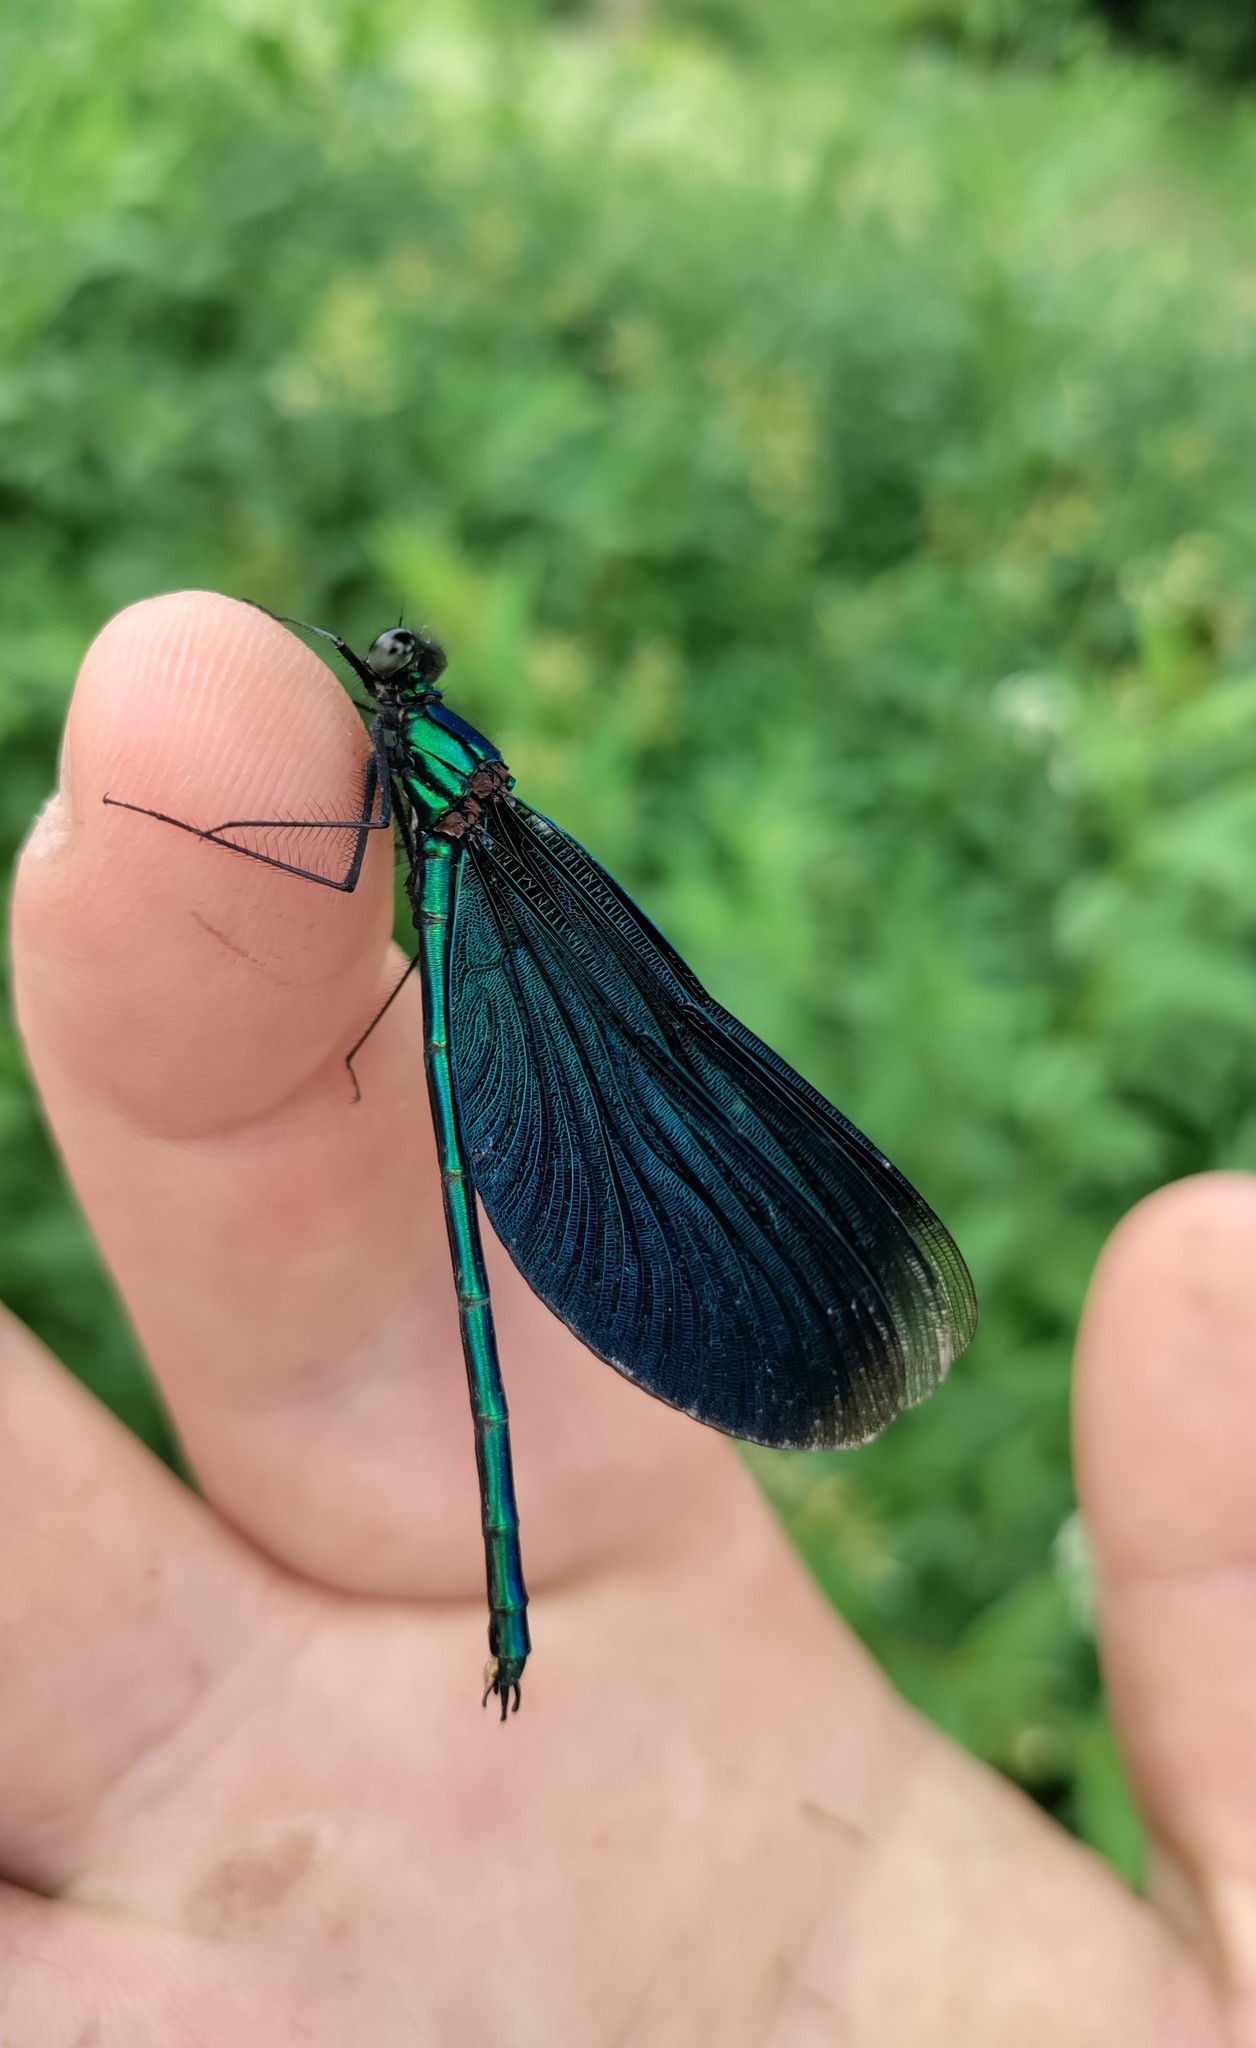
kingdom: Animalia
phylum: Arthropoda
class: Insecta
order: Odonata
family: Calopterygidae
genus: Calopteryx
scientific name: Calopteryx virgo
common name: Beautiful demoiselle
